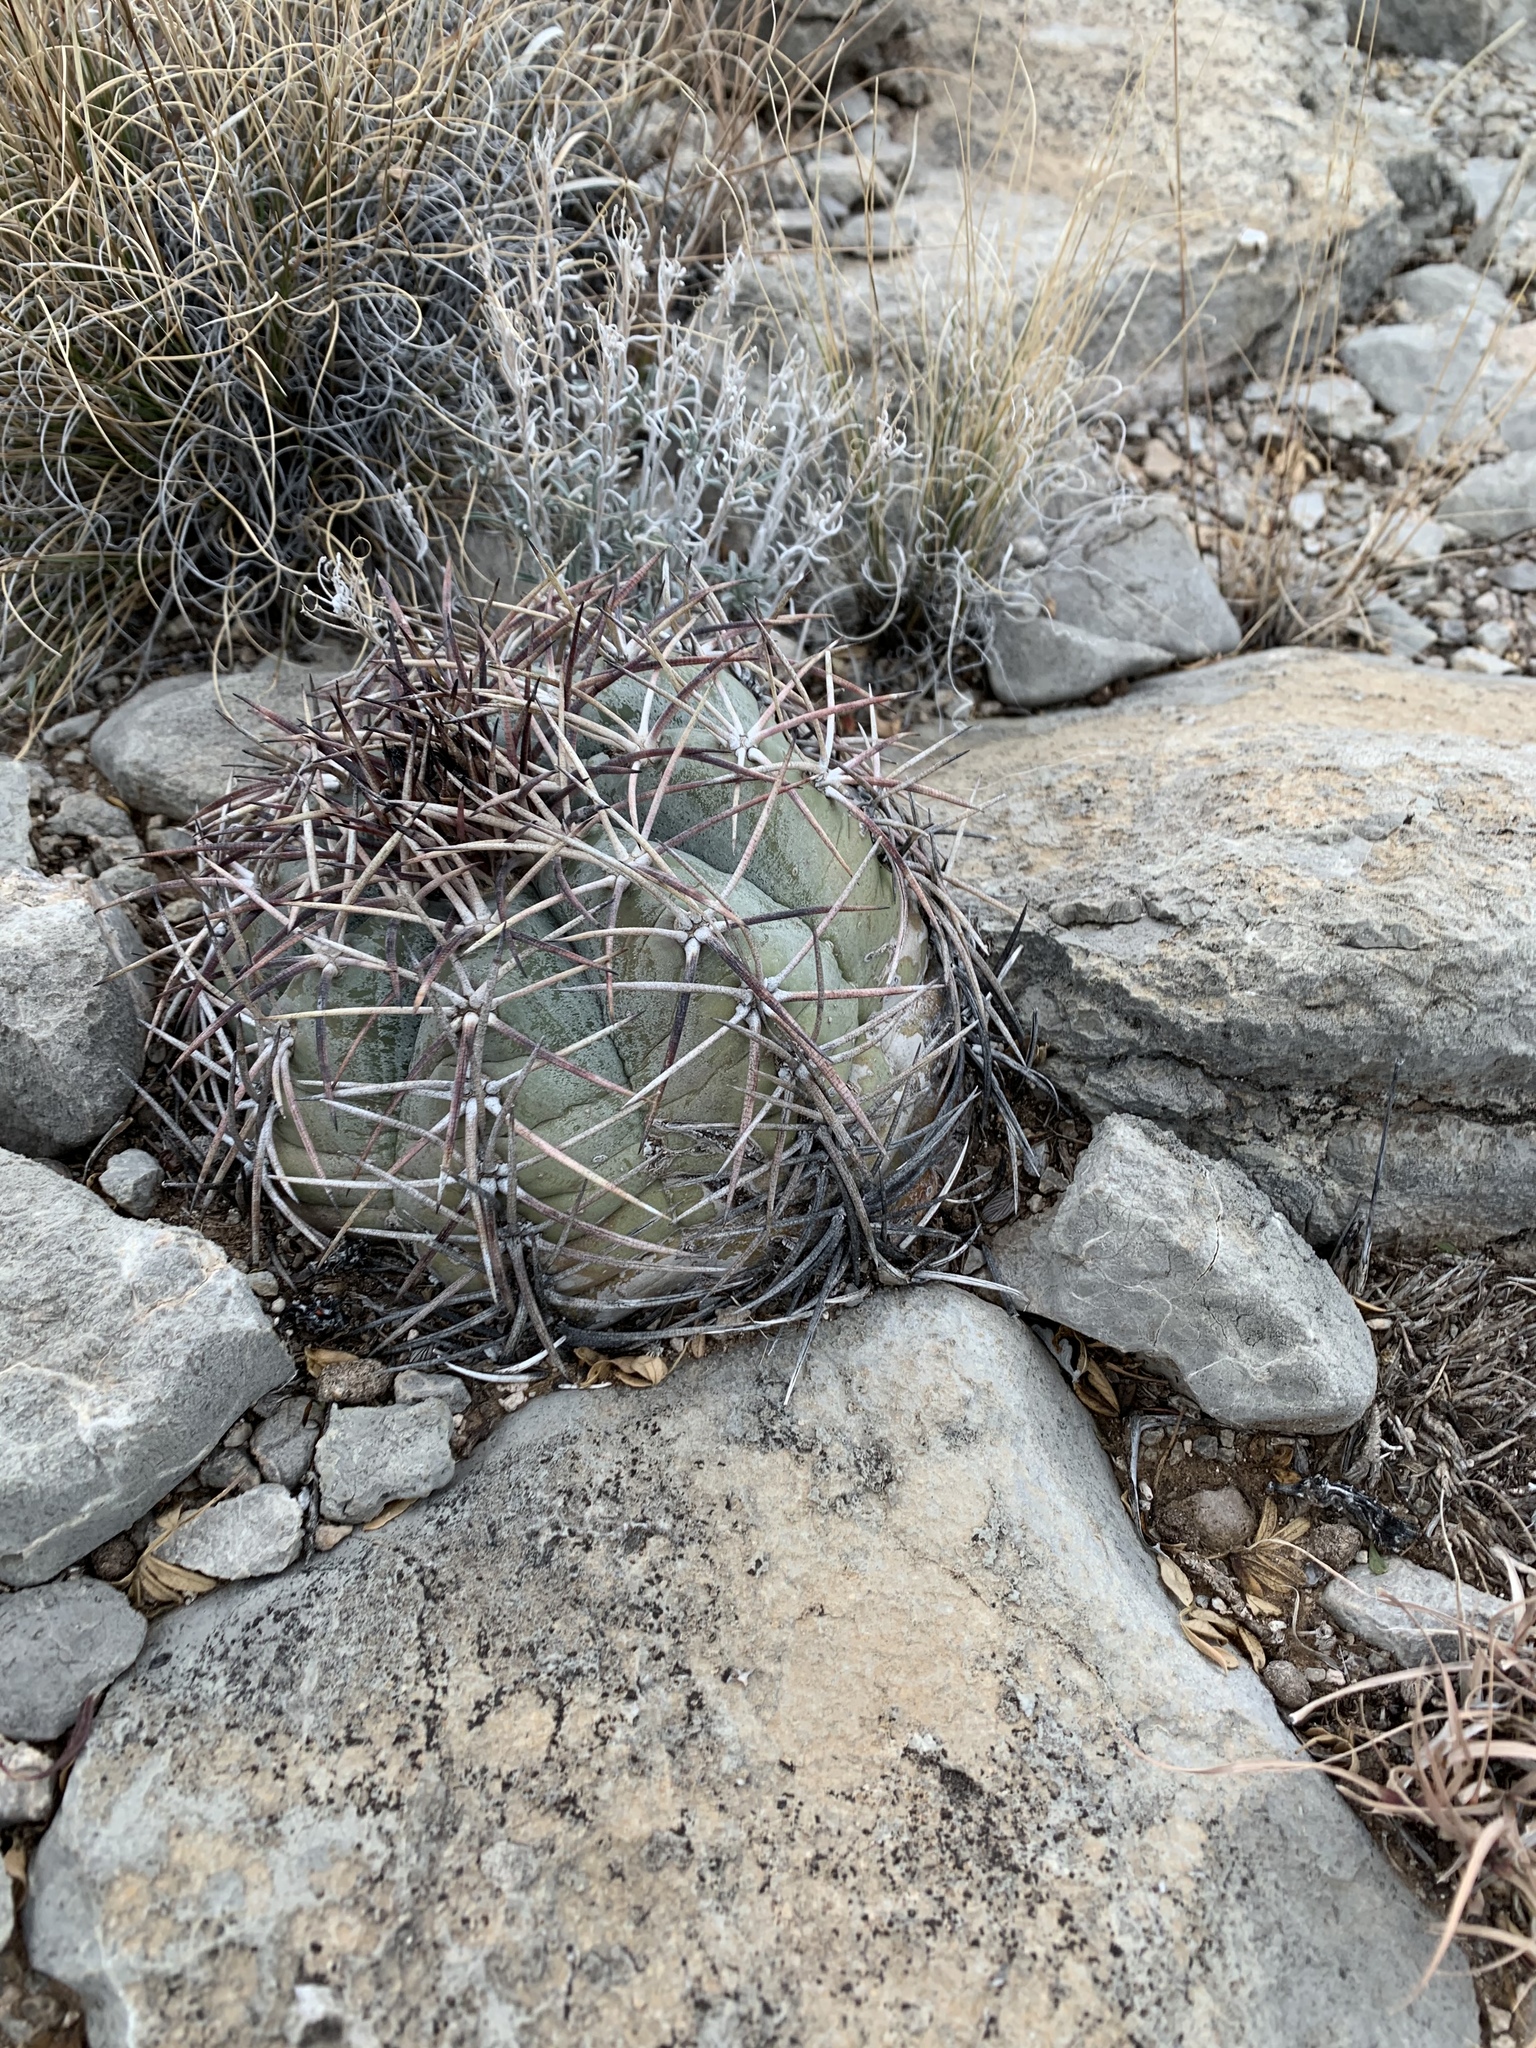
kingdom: Plantae
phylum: Tracheophyta
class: Magnoliopsida
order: Caryophyllales
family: Cactaceae
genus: Echinocactus
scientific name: Echinocactus horizonthalonius
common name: Devilshead
